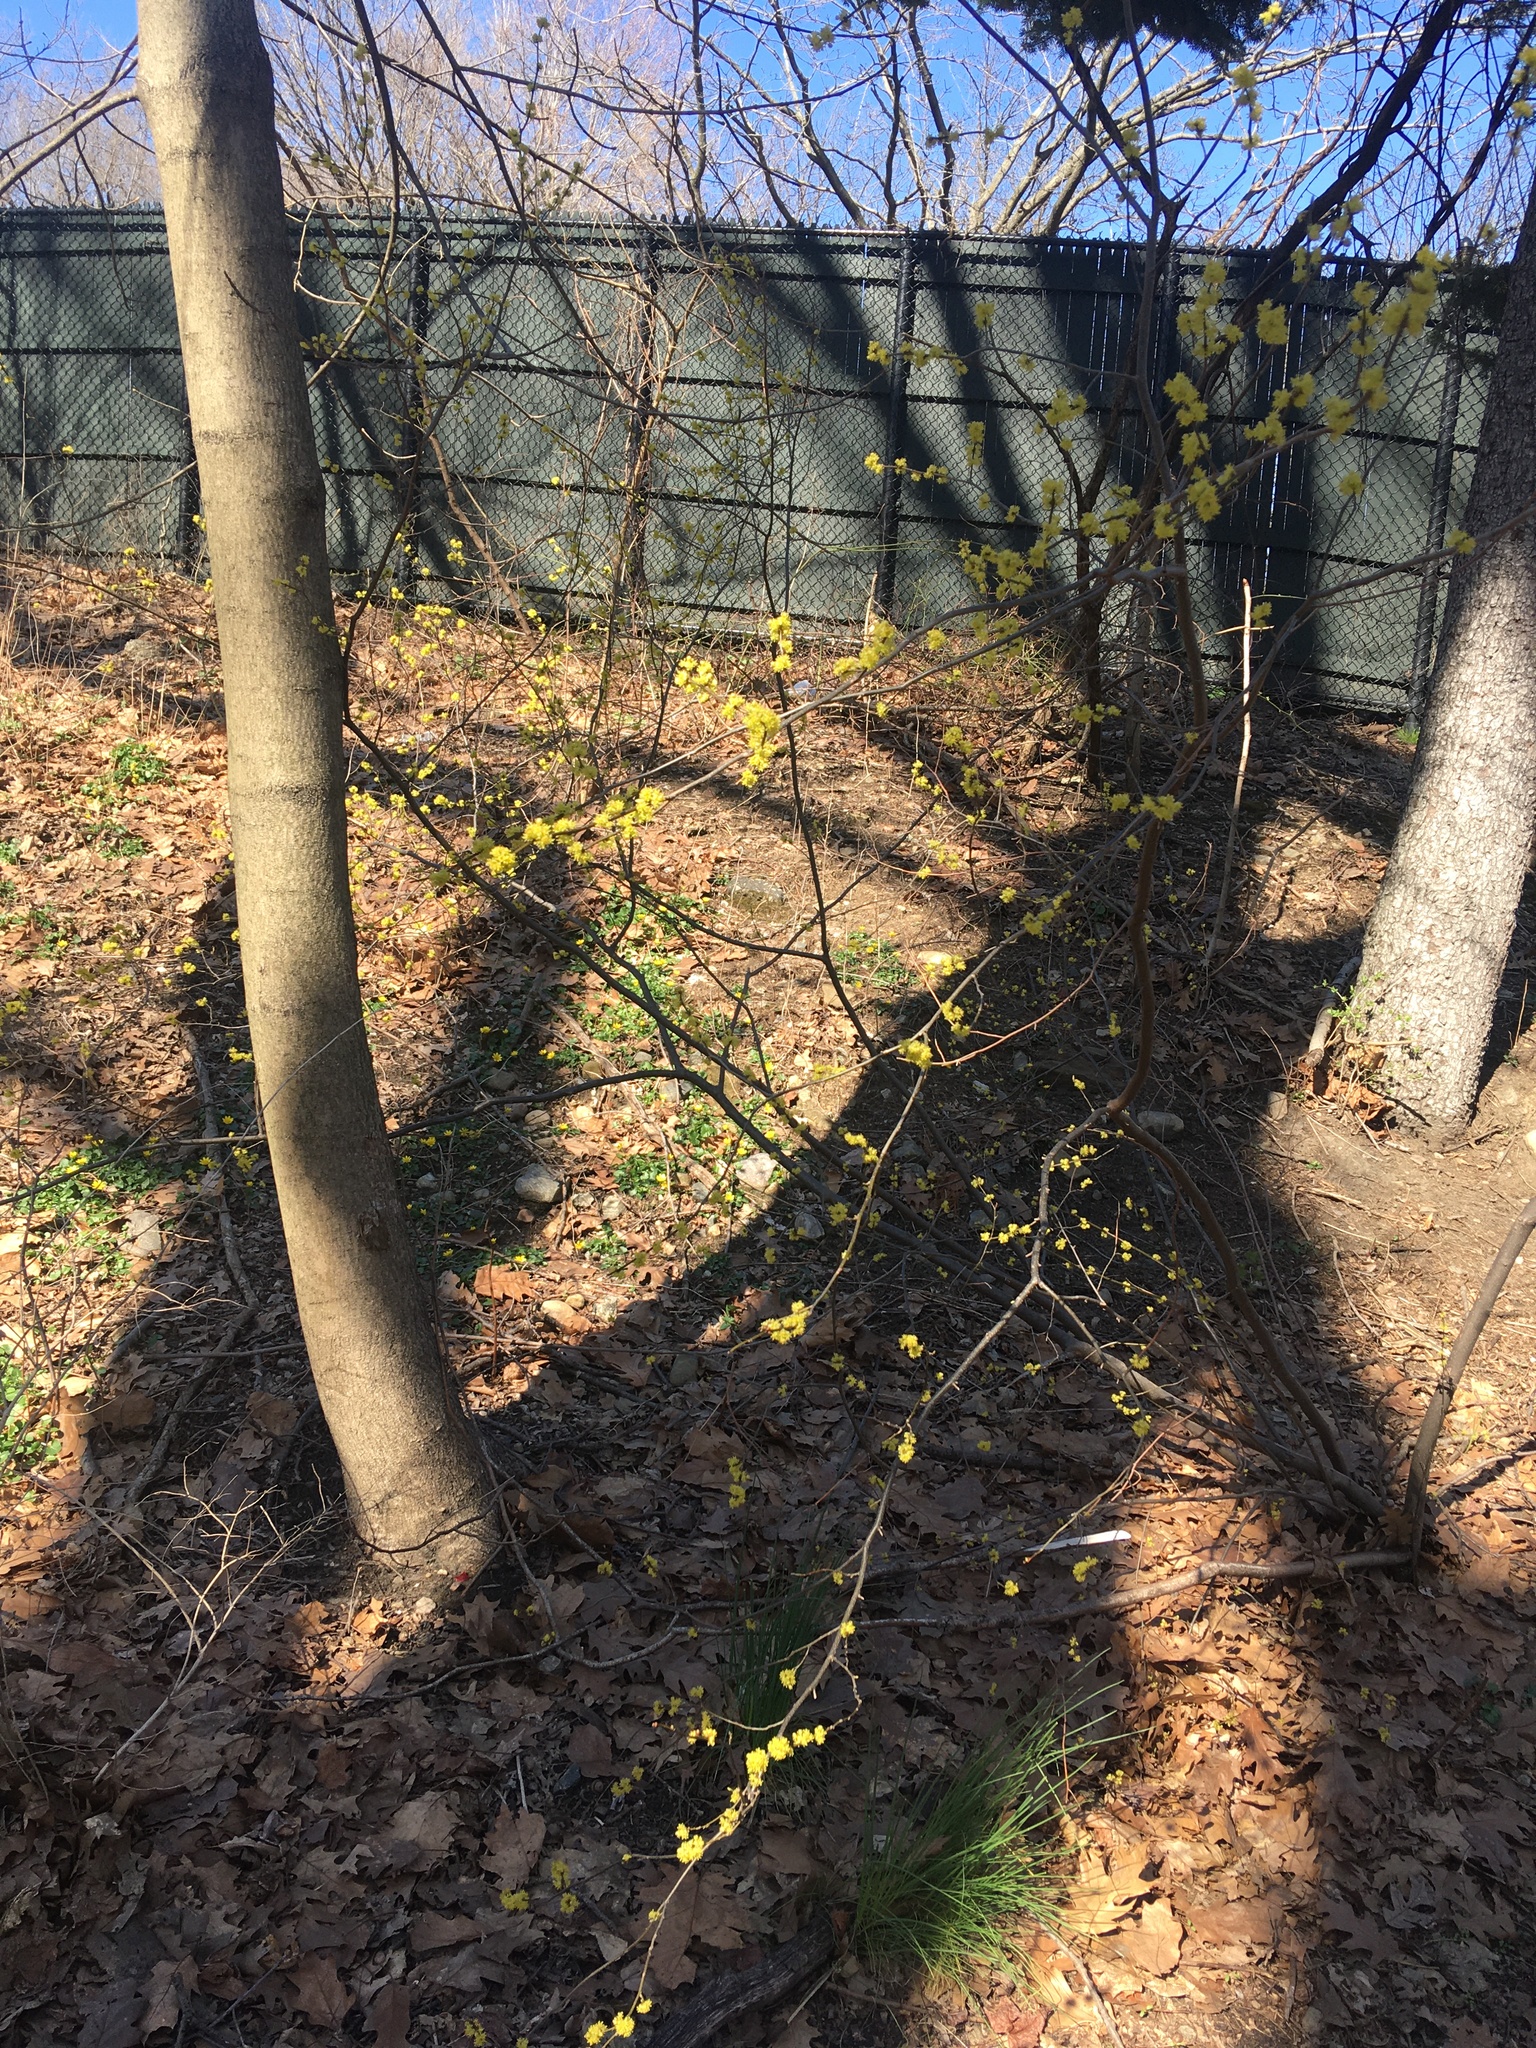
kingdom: Plantae
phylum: Tracheophyta
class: Magnoliopsida
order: Laurales
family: Lauraceae
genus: Lindera
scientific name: Lindera benzoin
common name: Spicebush
